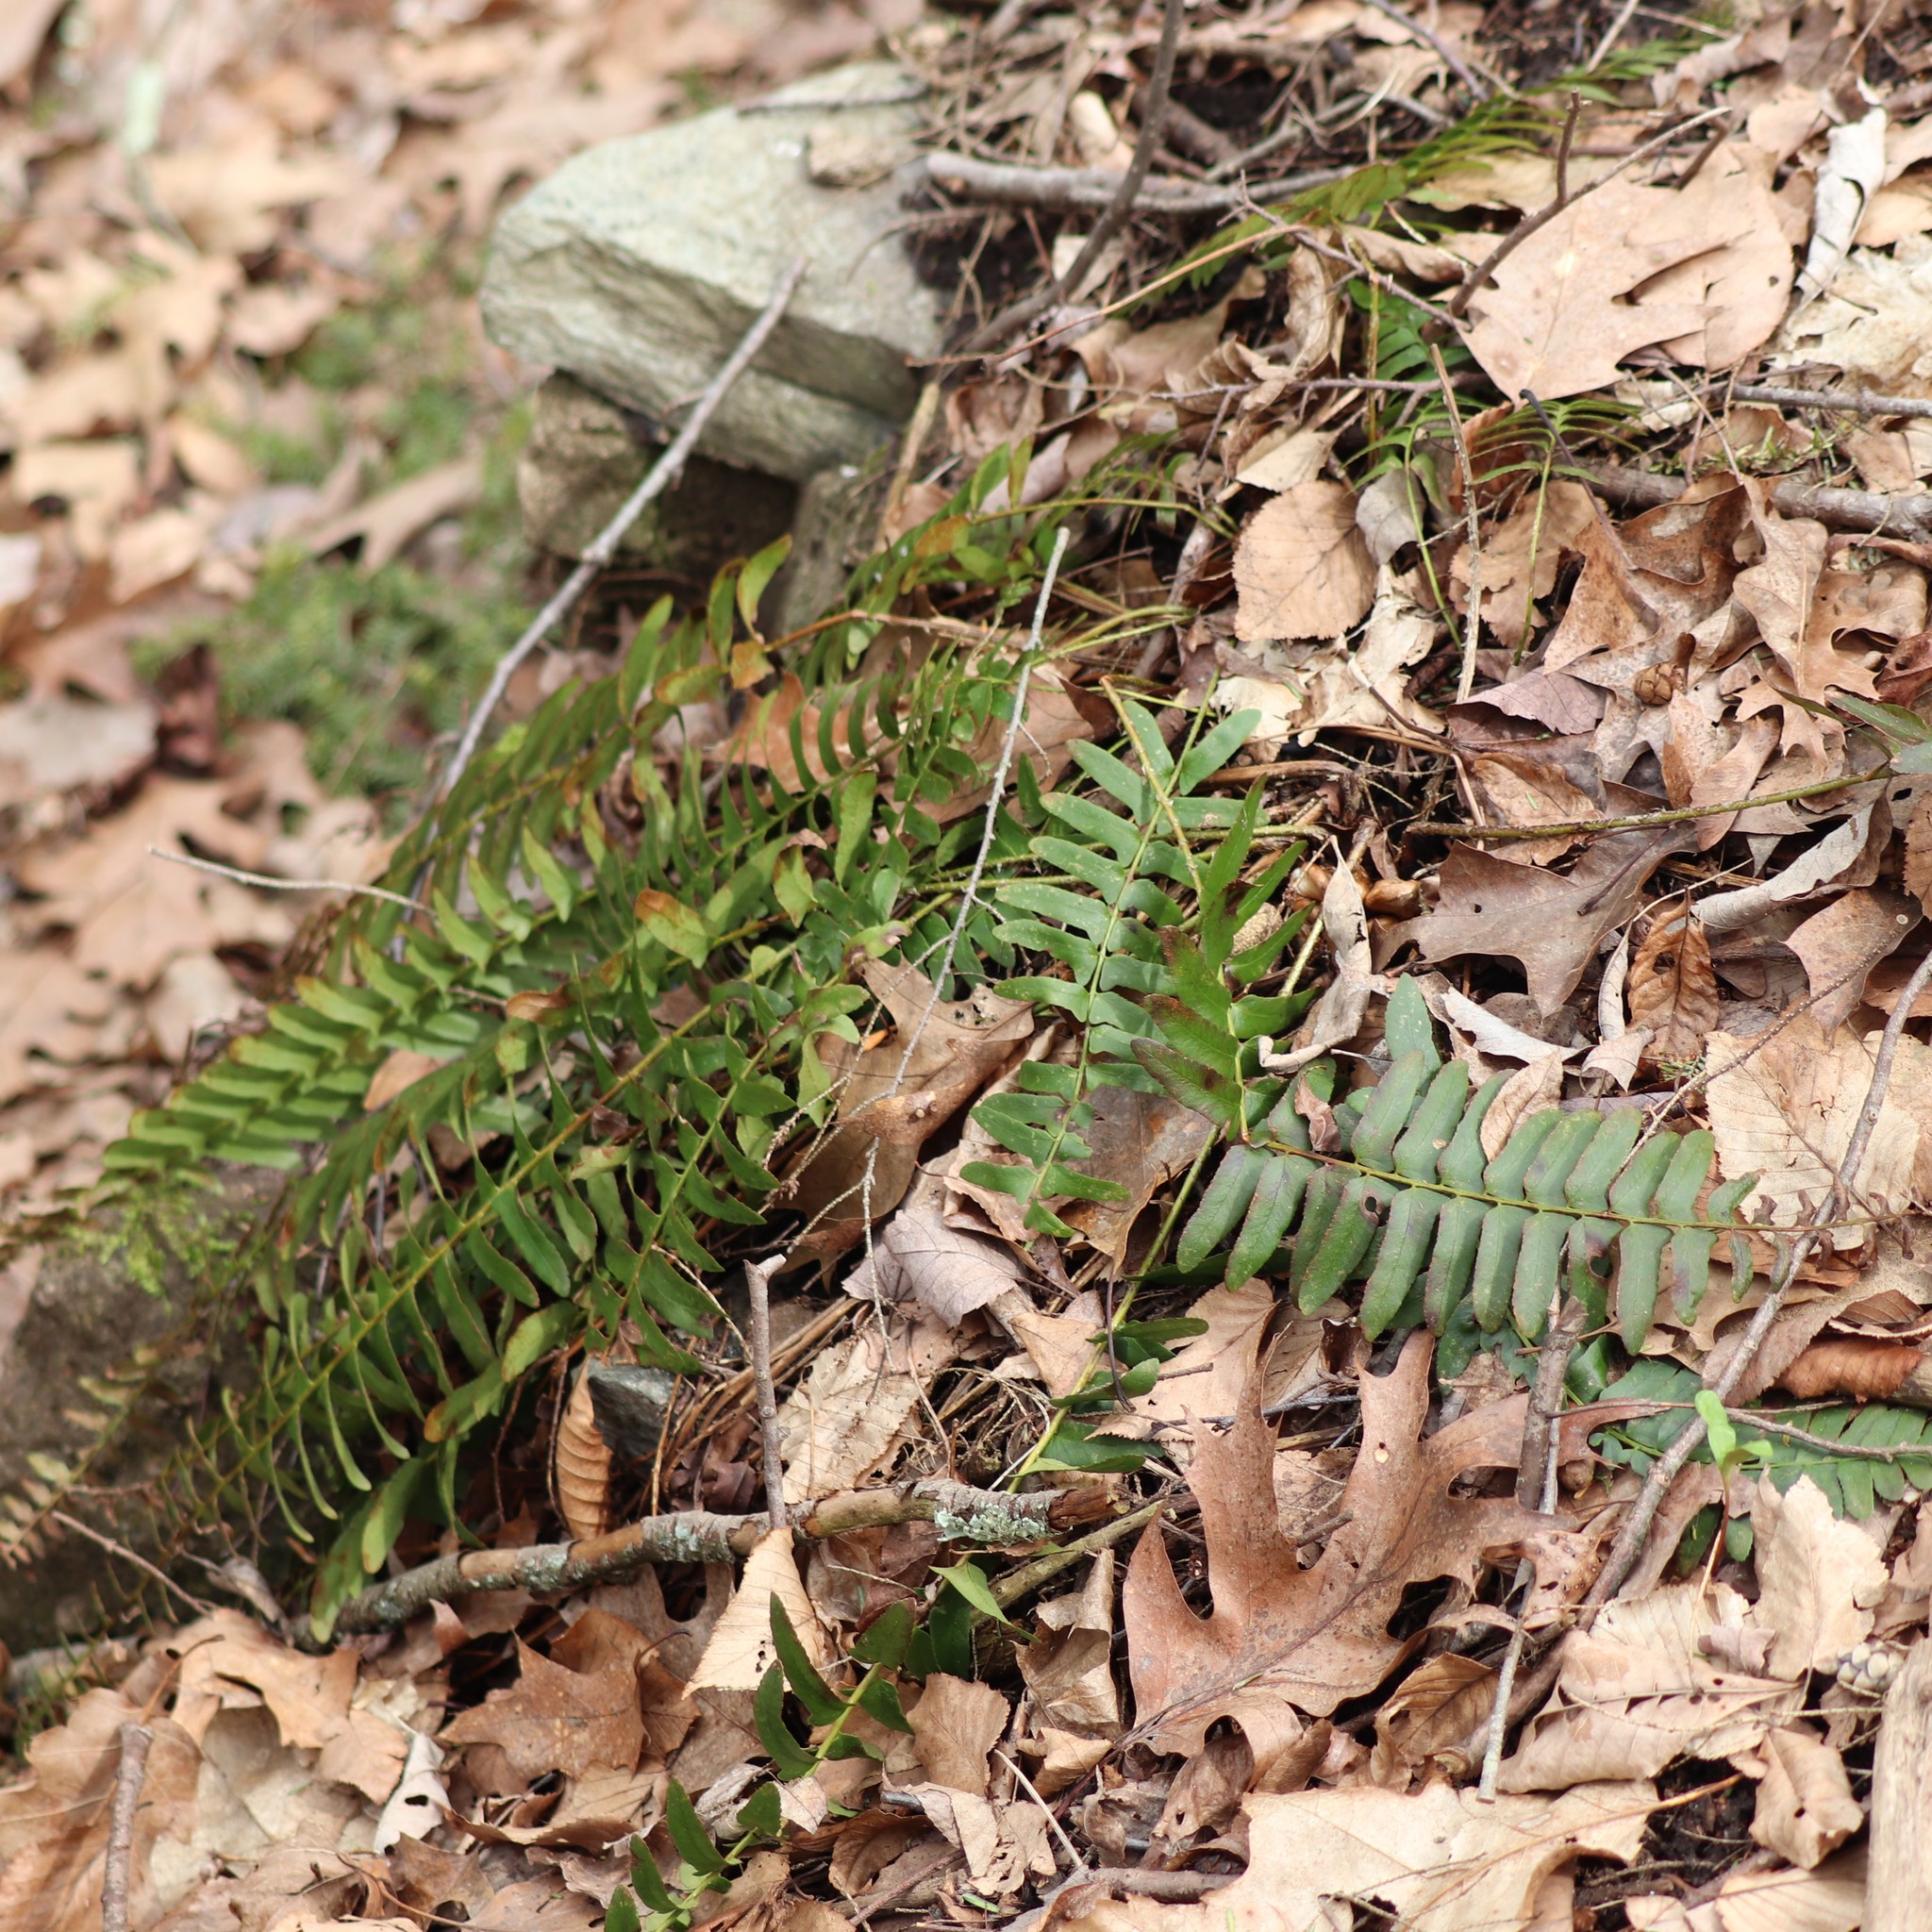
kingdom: Plantae
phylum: Tracheophyta
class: Polypodiopsida
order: Polypodiales
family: Dryopteridaceae
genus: Polystichum
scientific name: Polystichum acrostichoides
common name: Christmas fern
